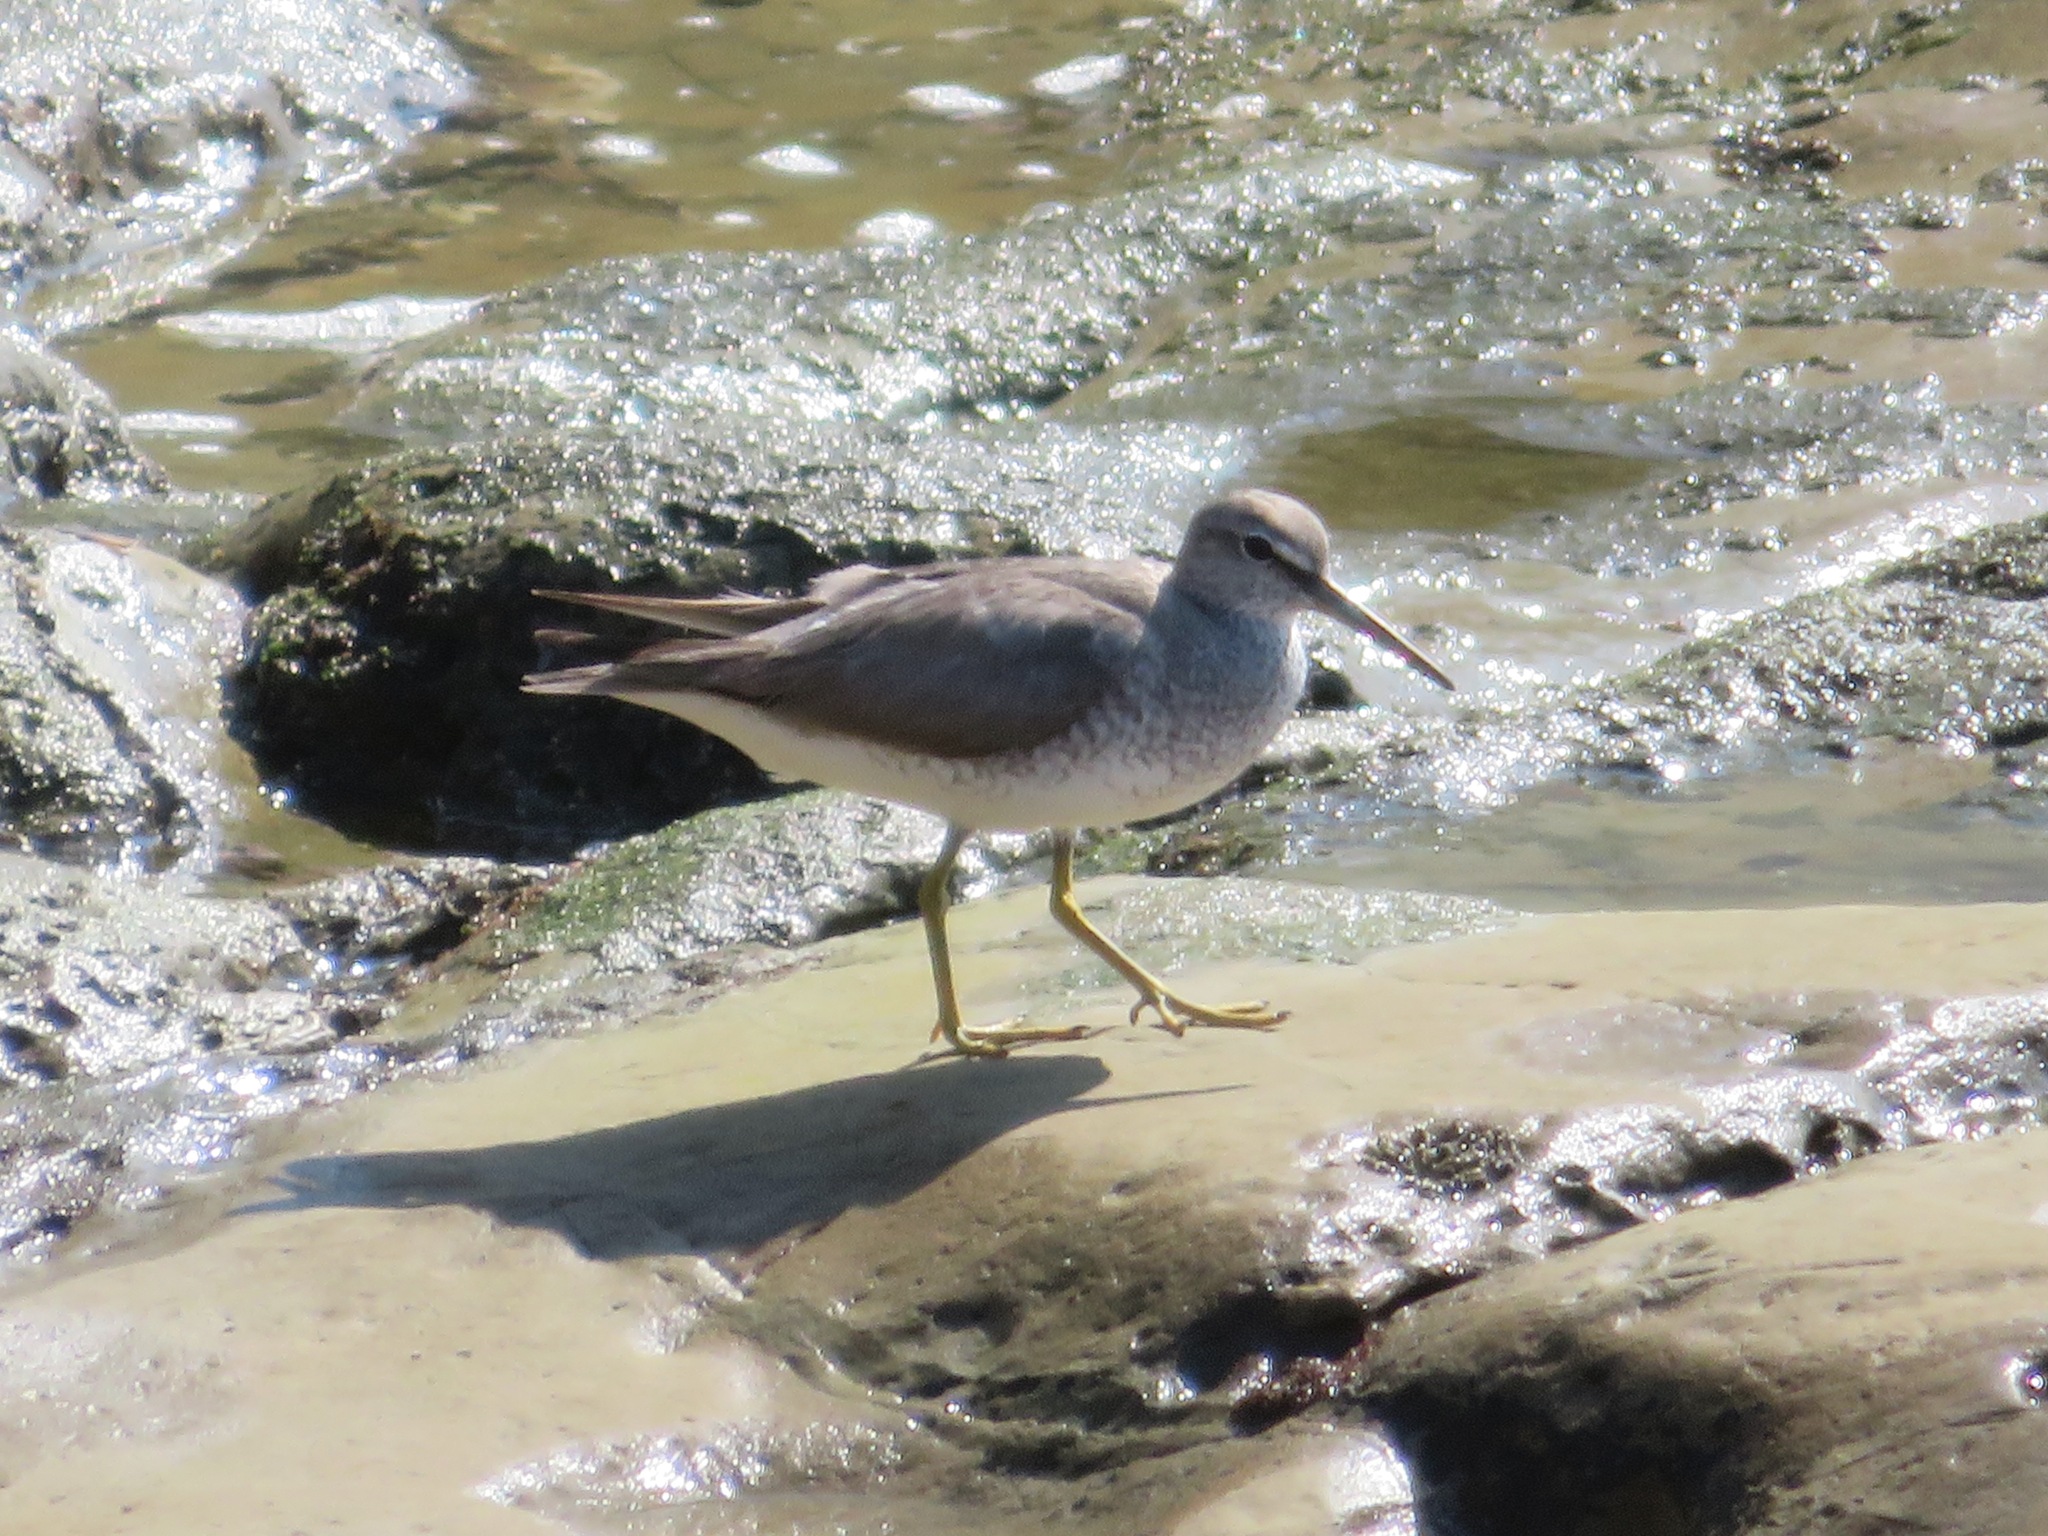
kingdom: Animalia
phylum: Chordata
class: Aves
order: Charadriiformes
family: Scolopacidae
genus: Tringa
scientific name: Tringa brevipes
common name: Grey-tailed tattler
